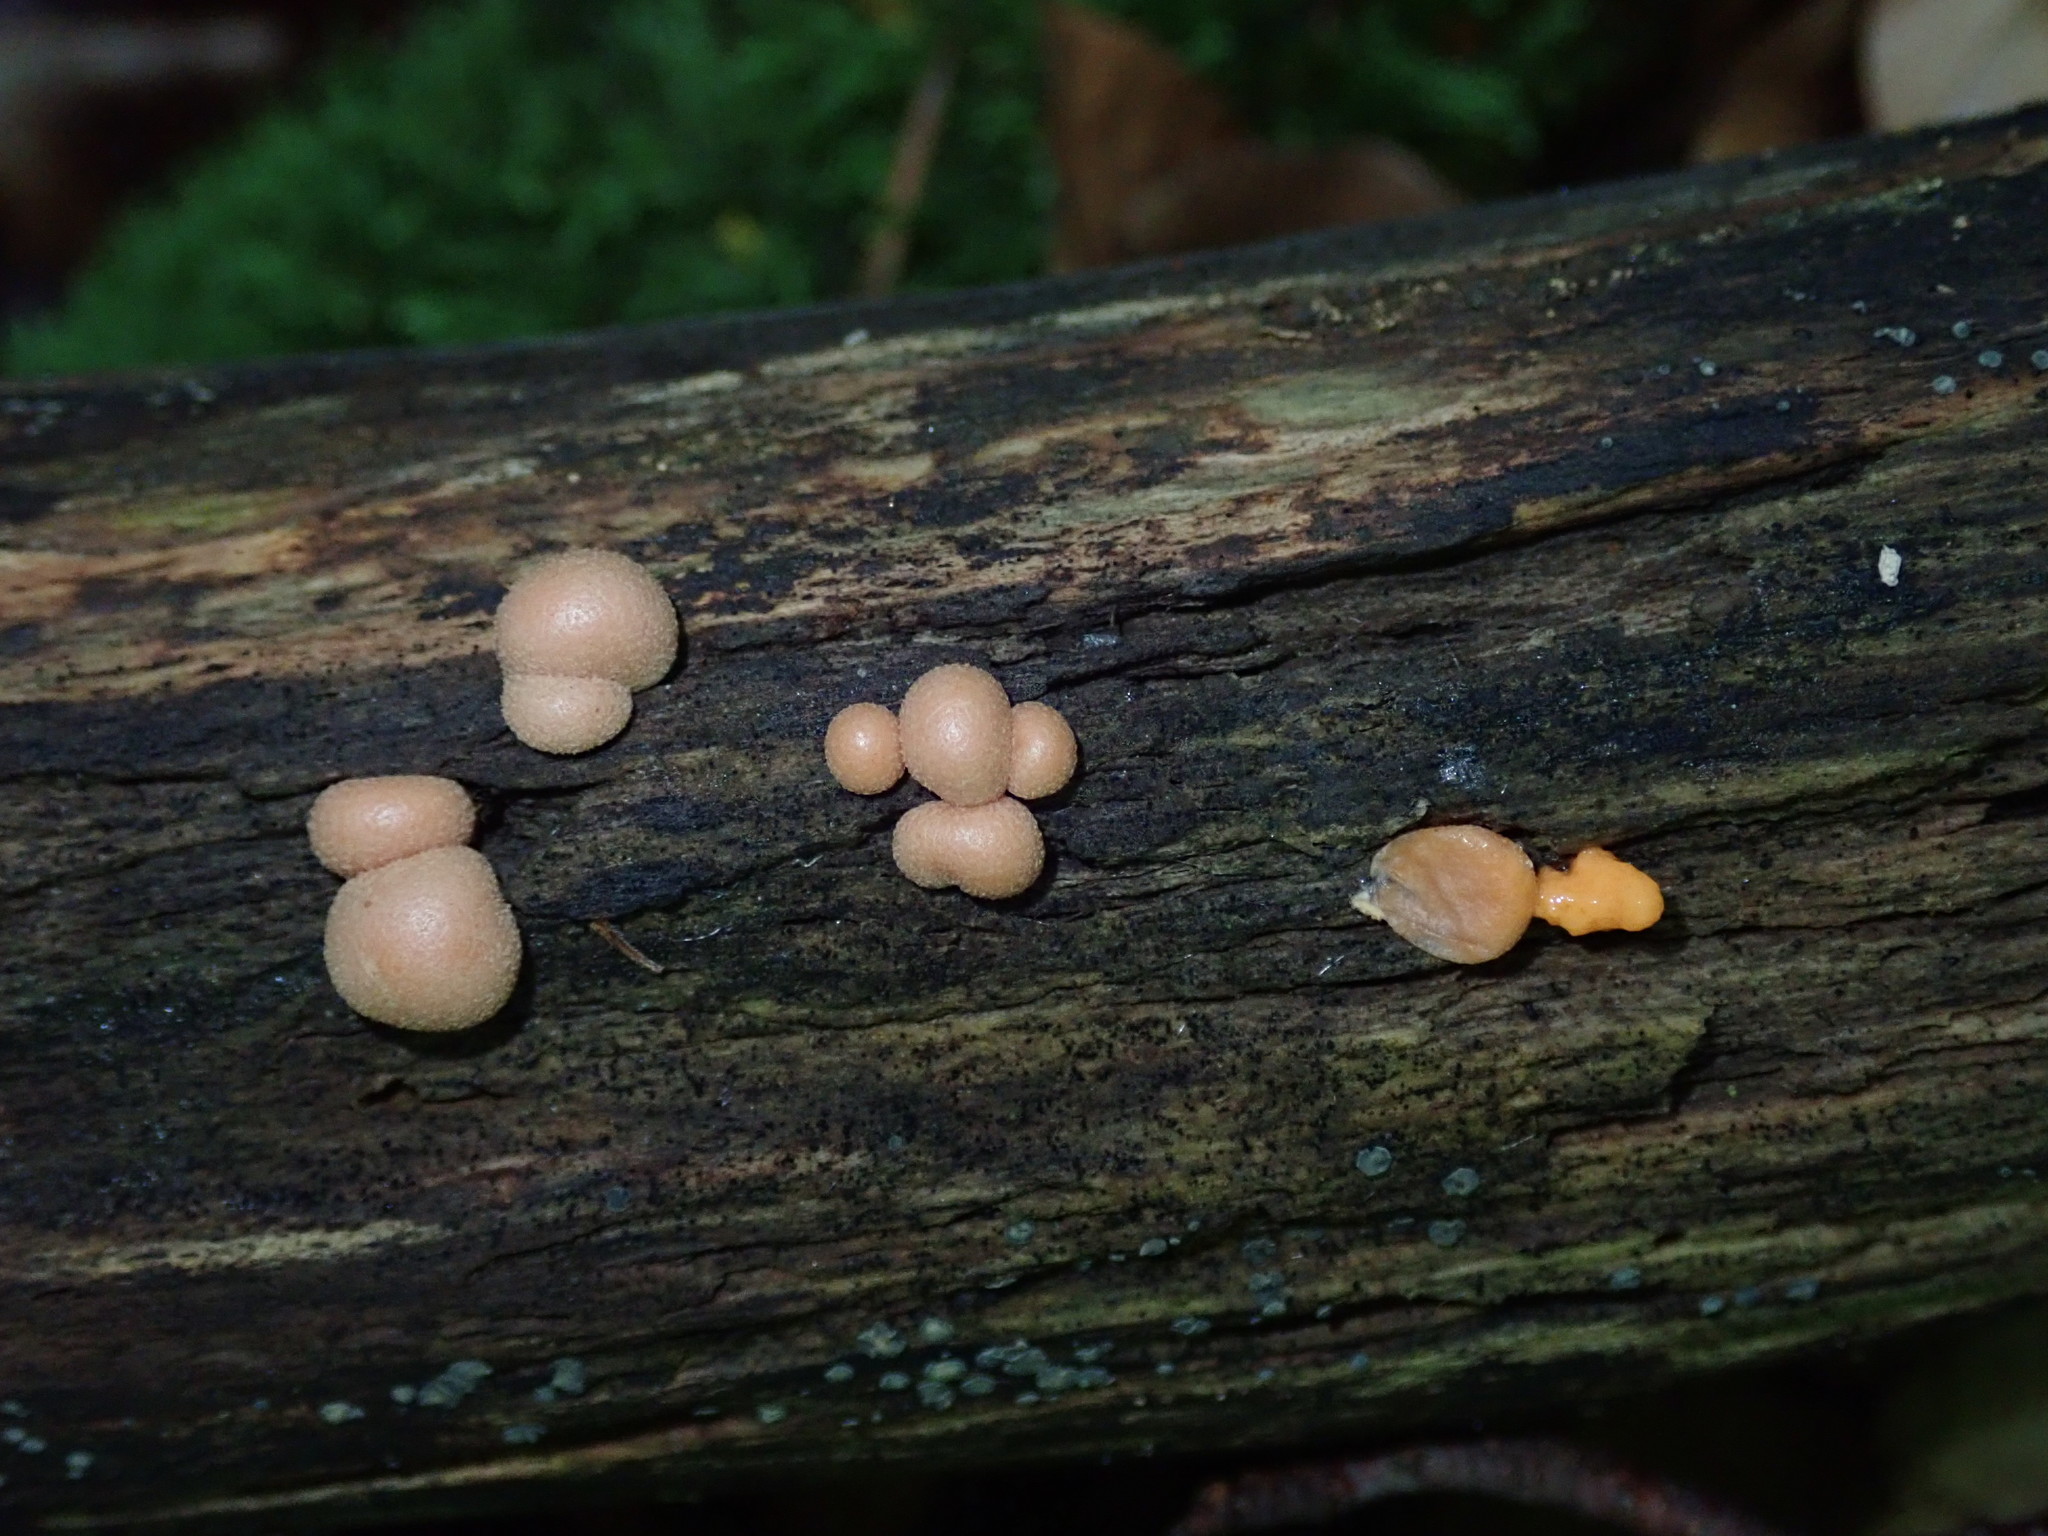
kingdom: Protozoa
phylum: Mycetozoa
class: Myxomycetes
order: Cribrariales
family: Tubiferaceae
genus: Lycogala
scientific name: Lycogala epidendrum
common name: Wolf's milk
